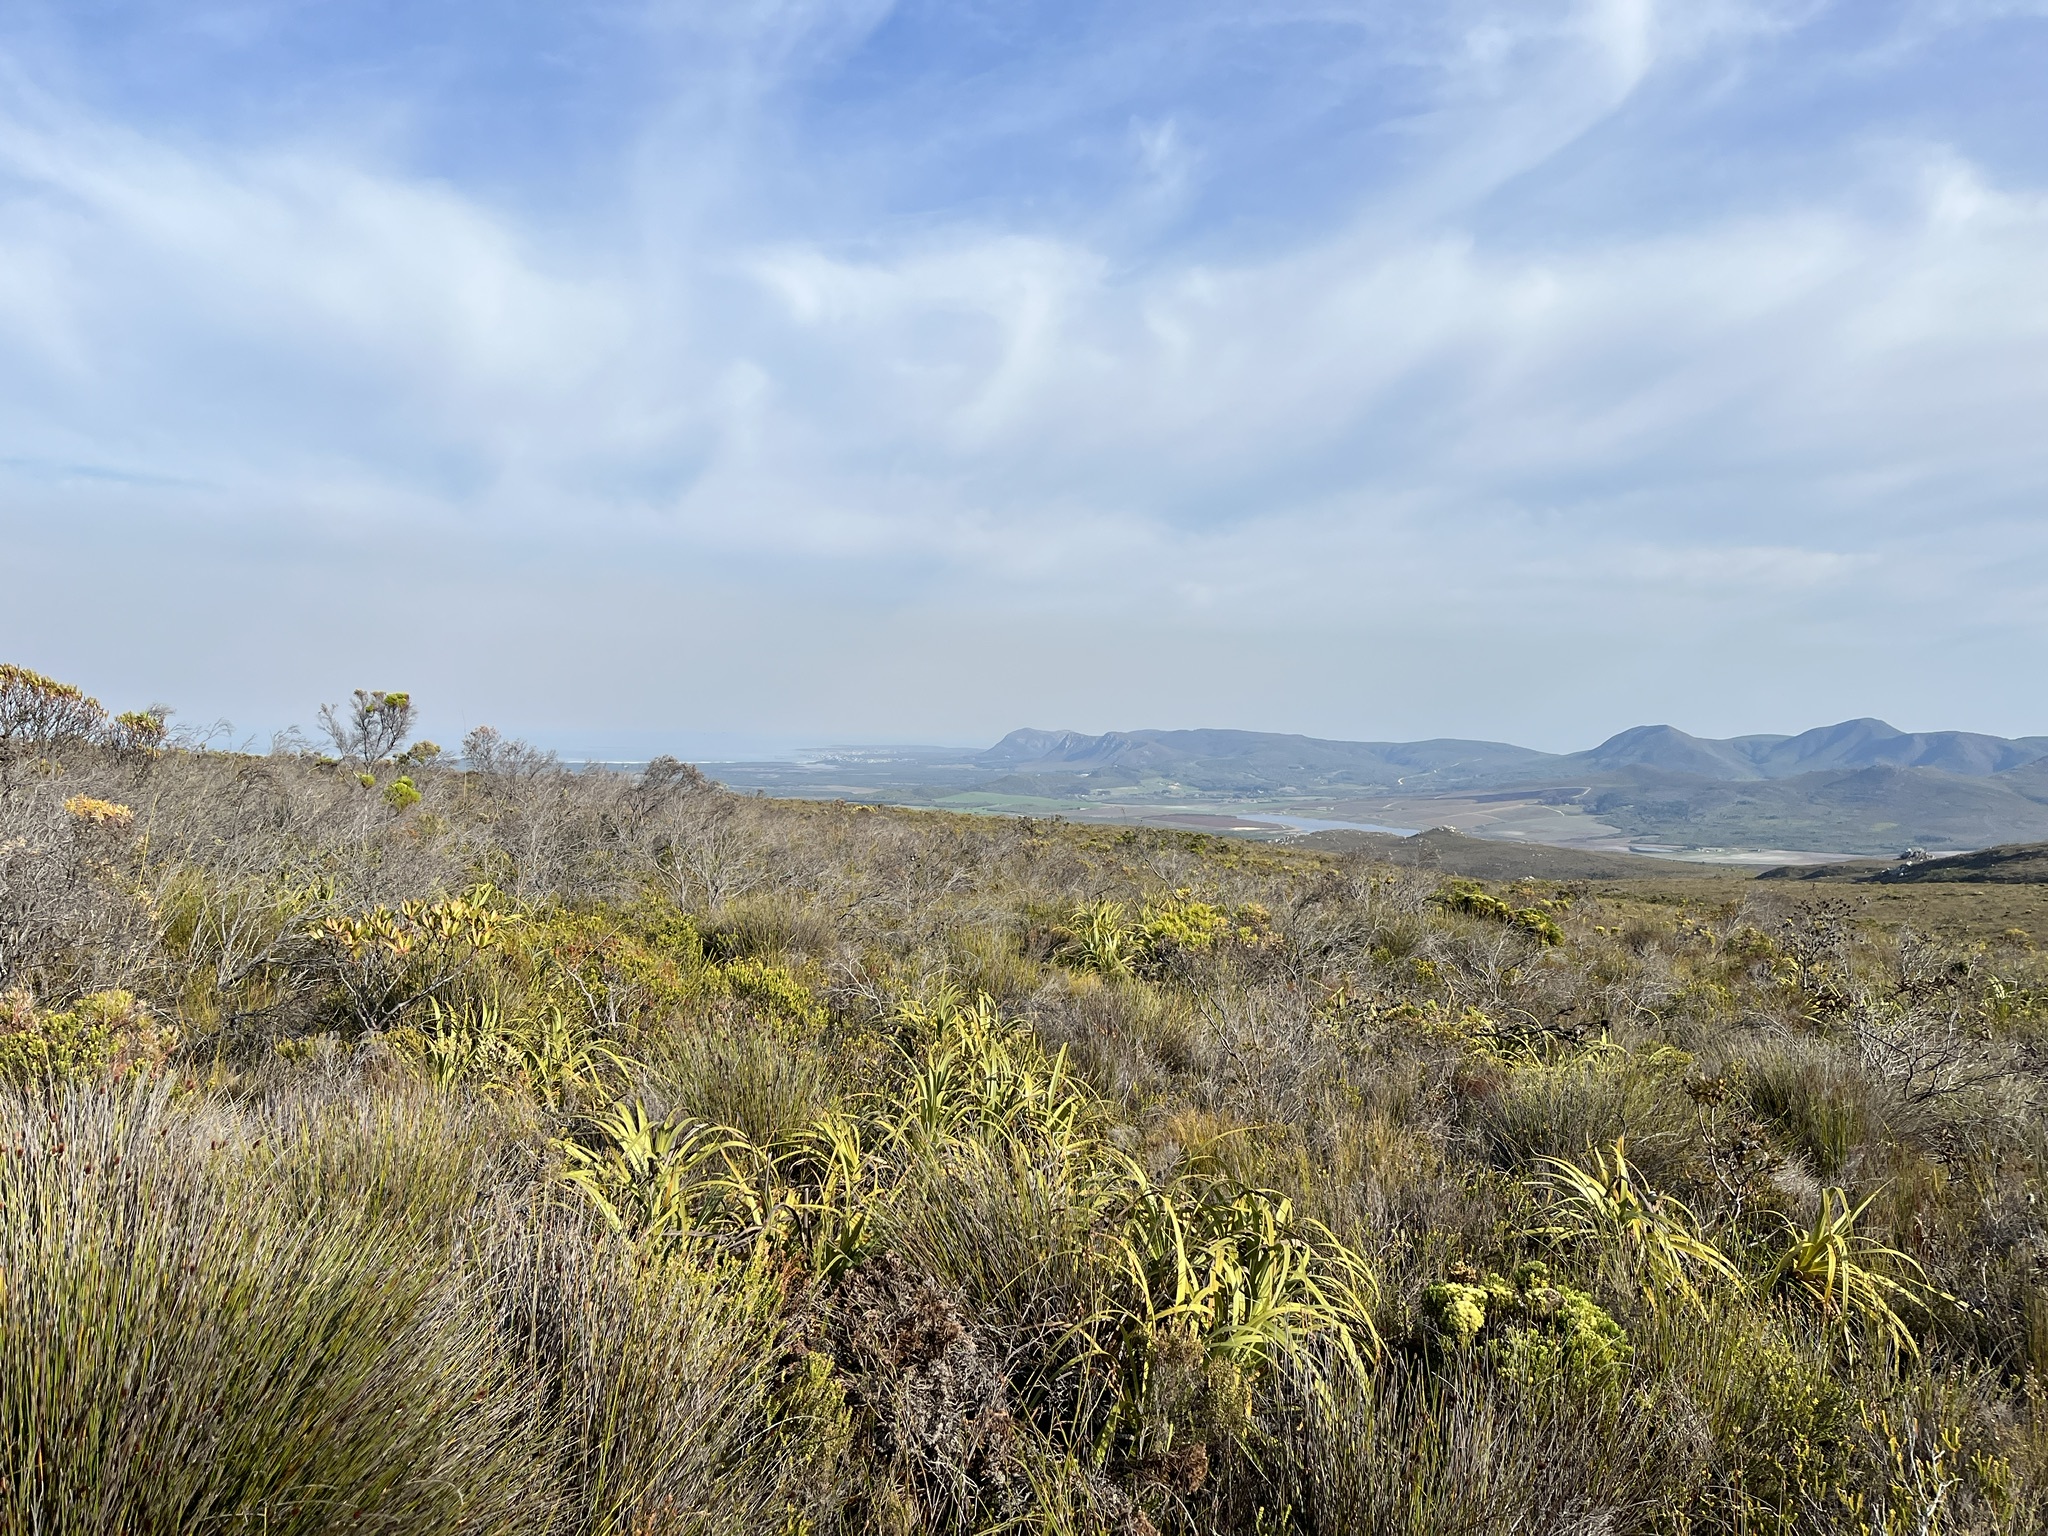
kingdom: Plantae
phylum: Tracheophyta
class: Liliopsida
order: Poales
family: Cyperaceae
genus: Tetraria
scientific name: Tetraria thermalis
